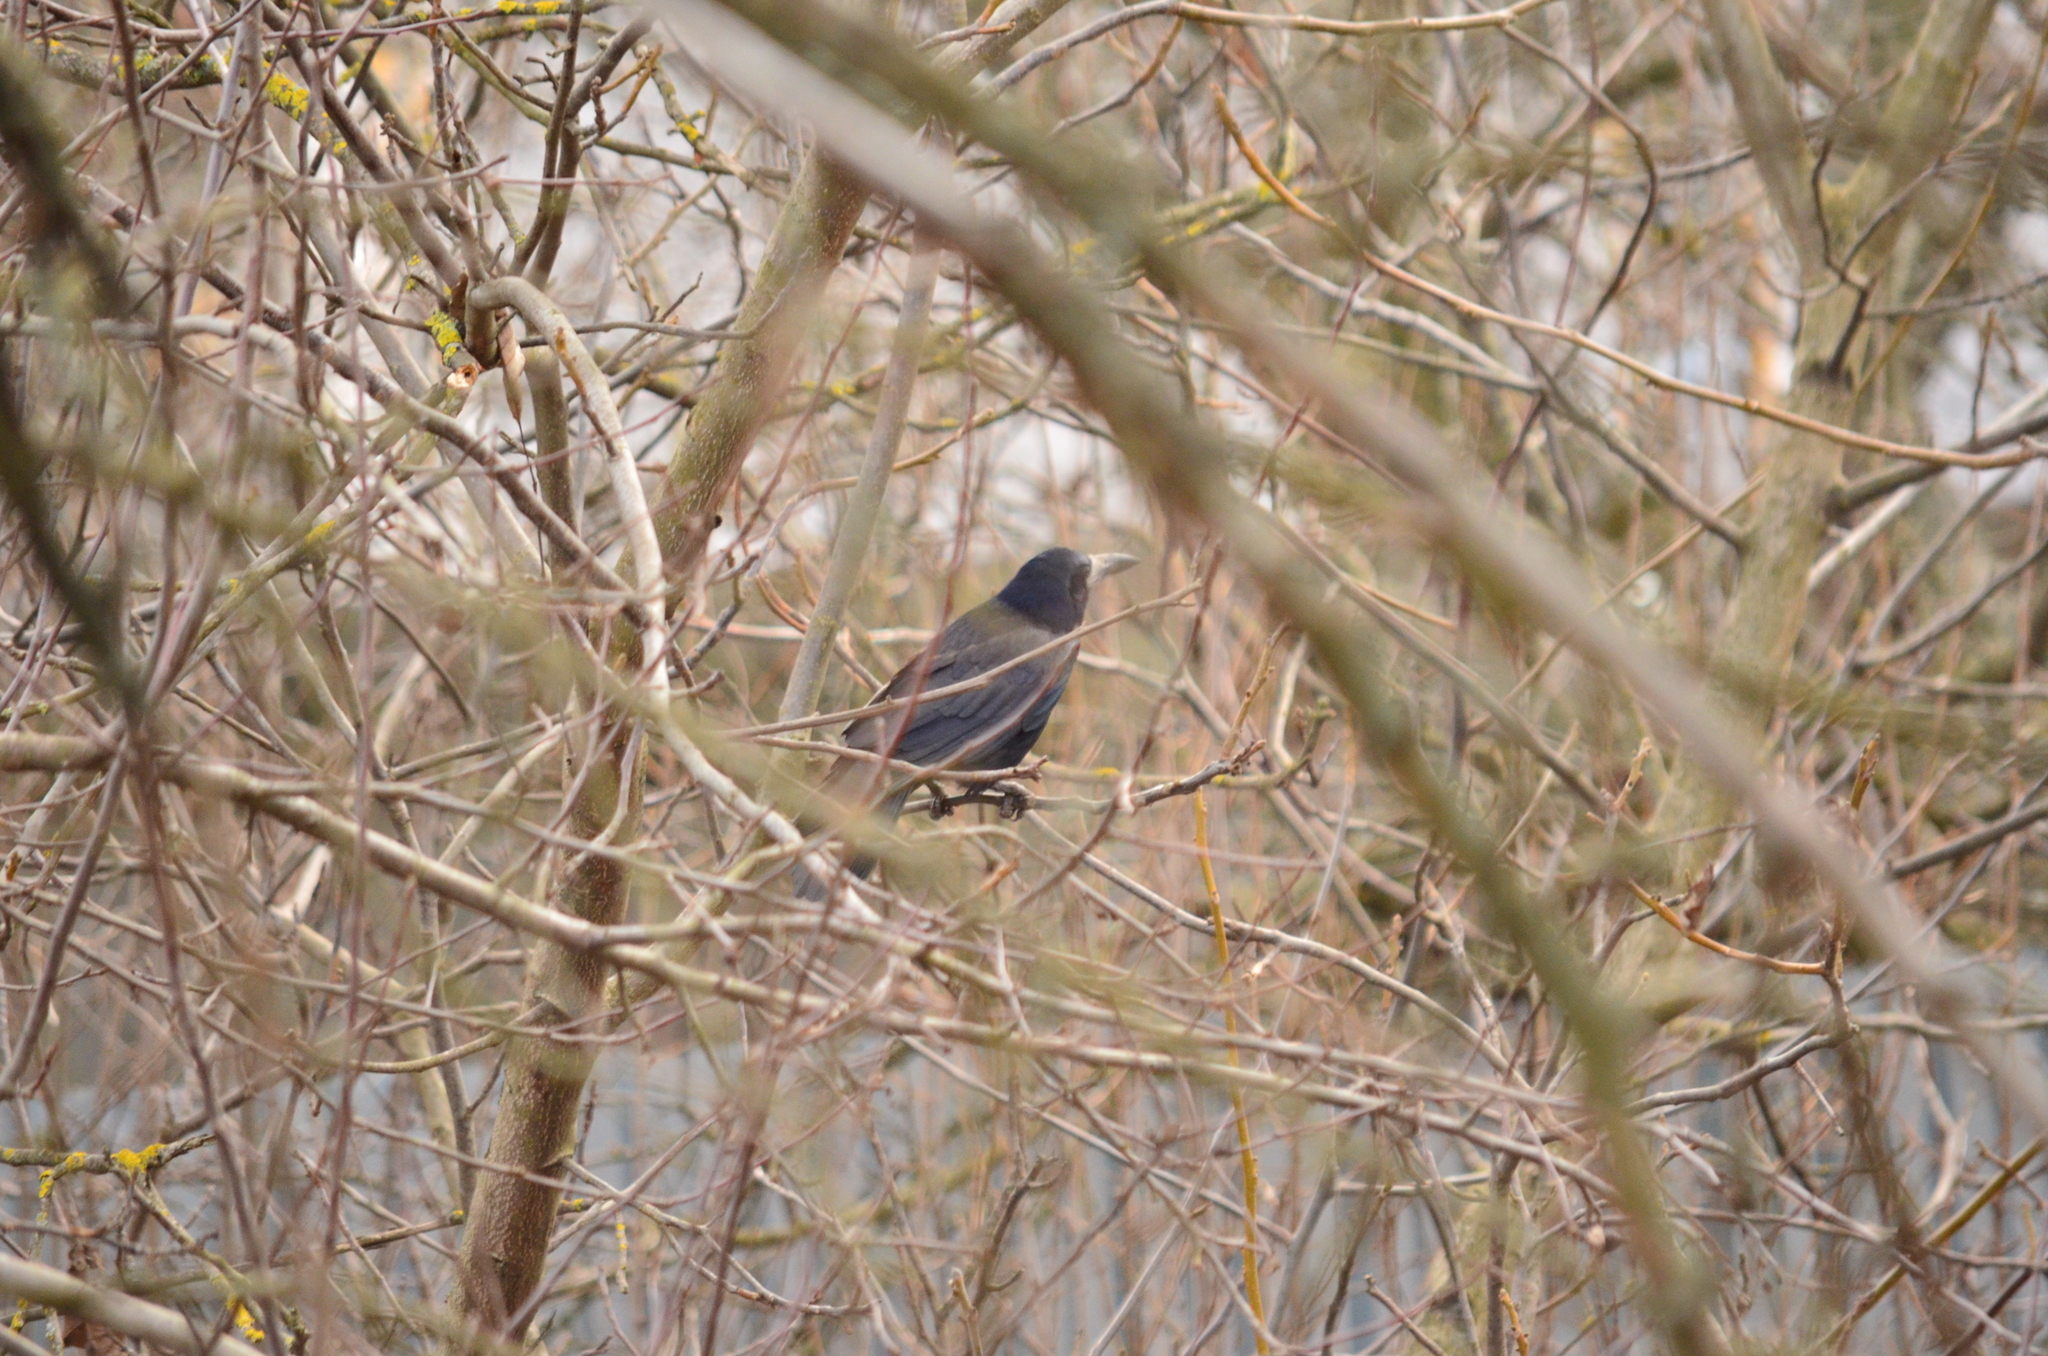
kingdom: Animalia
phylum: Chordata
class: Aves
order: Passeriformes
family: Corvidae
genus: Corvus
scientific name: Corvus frugilegus
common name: Rook
